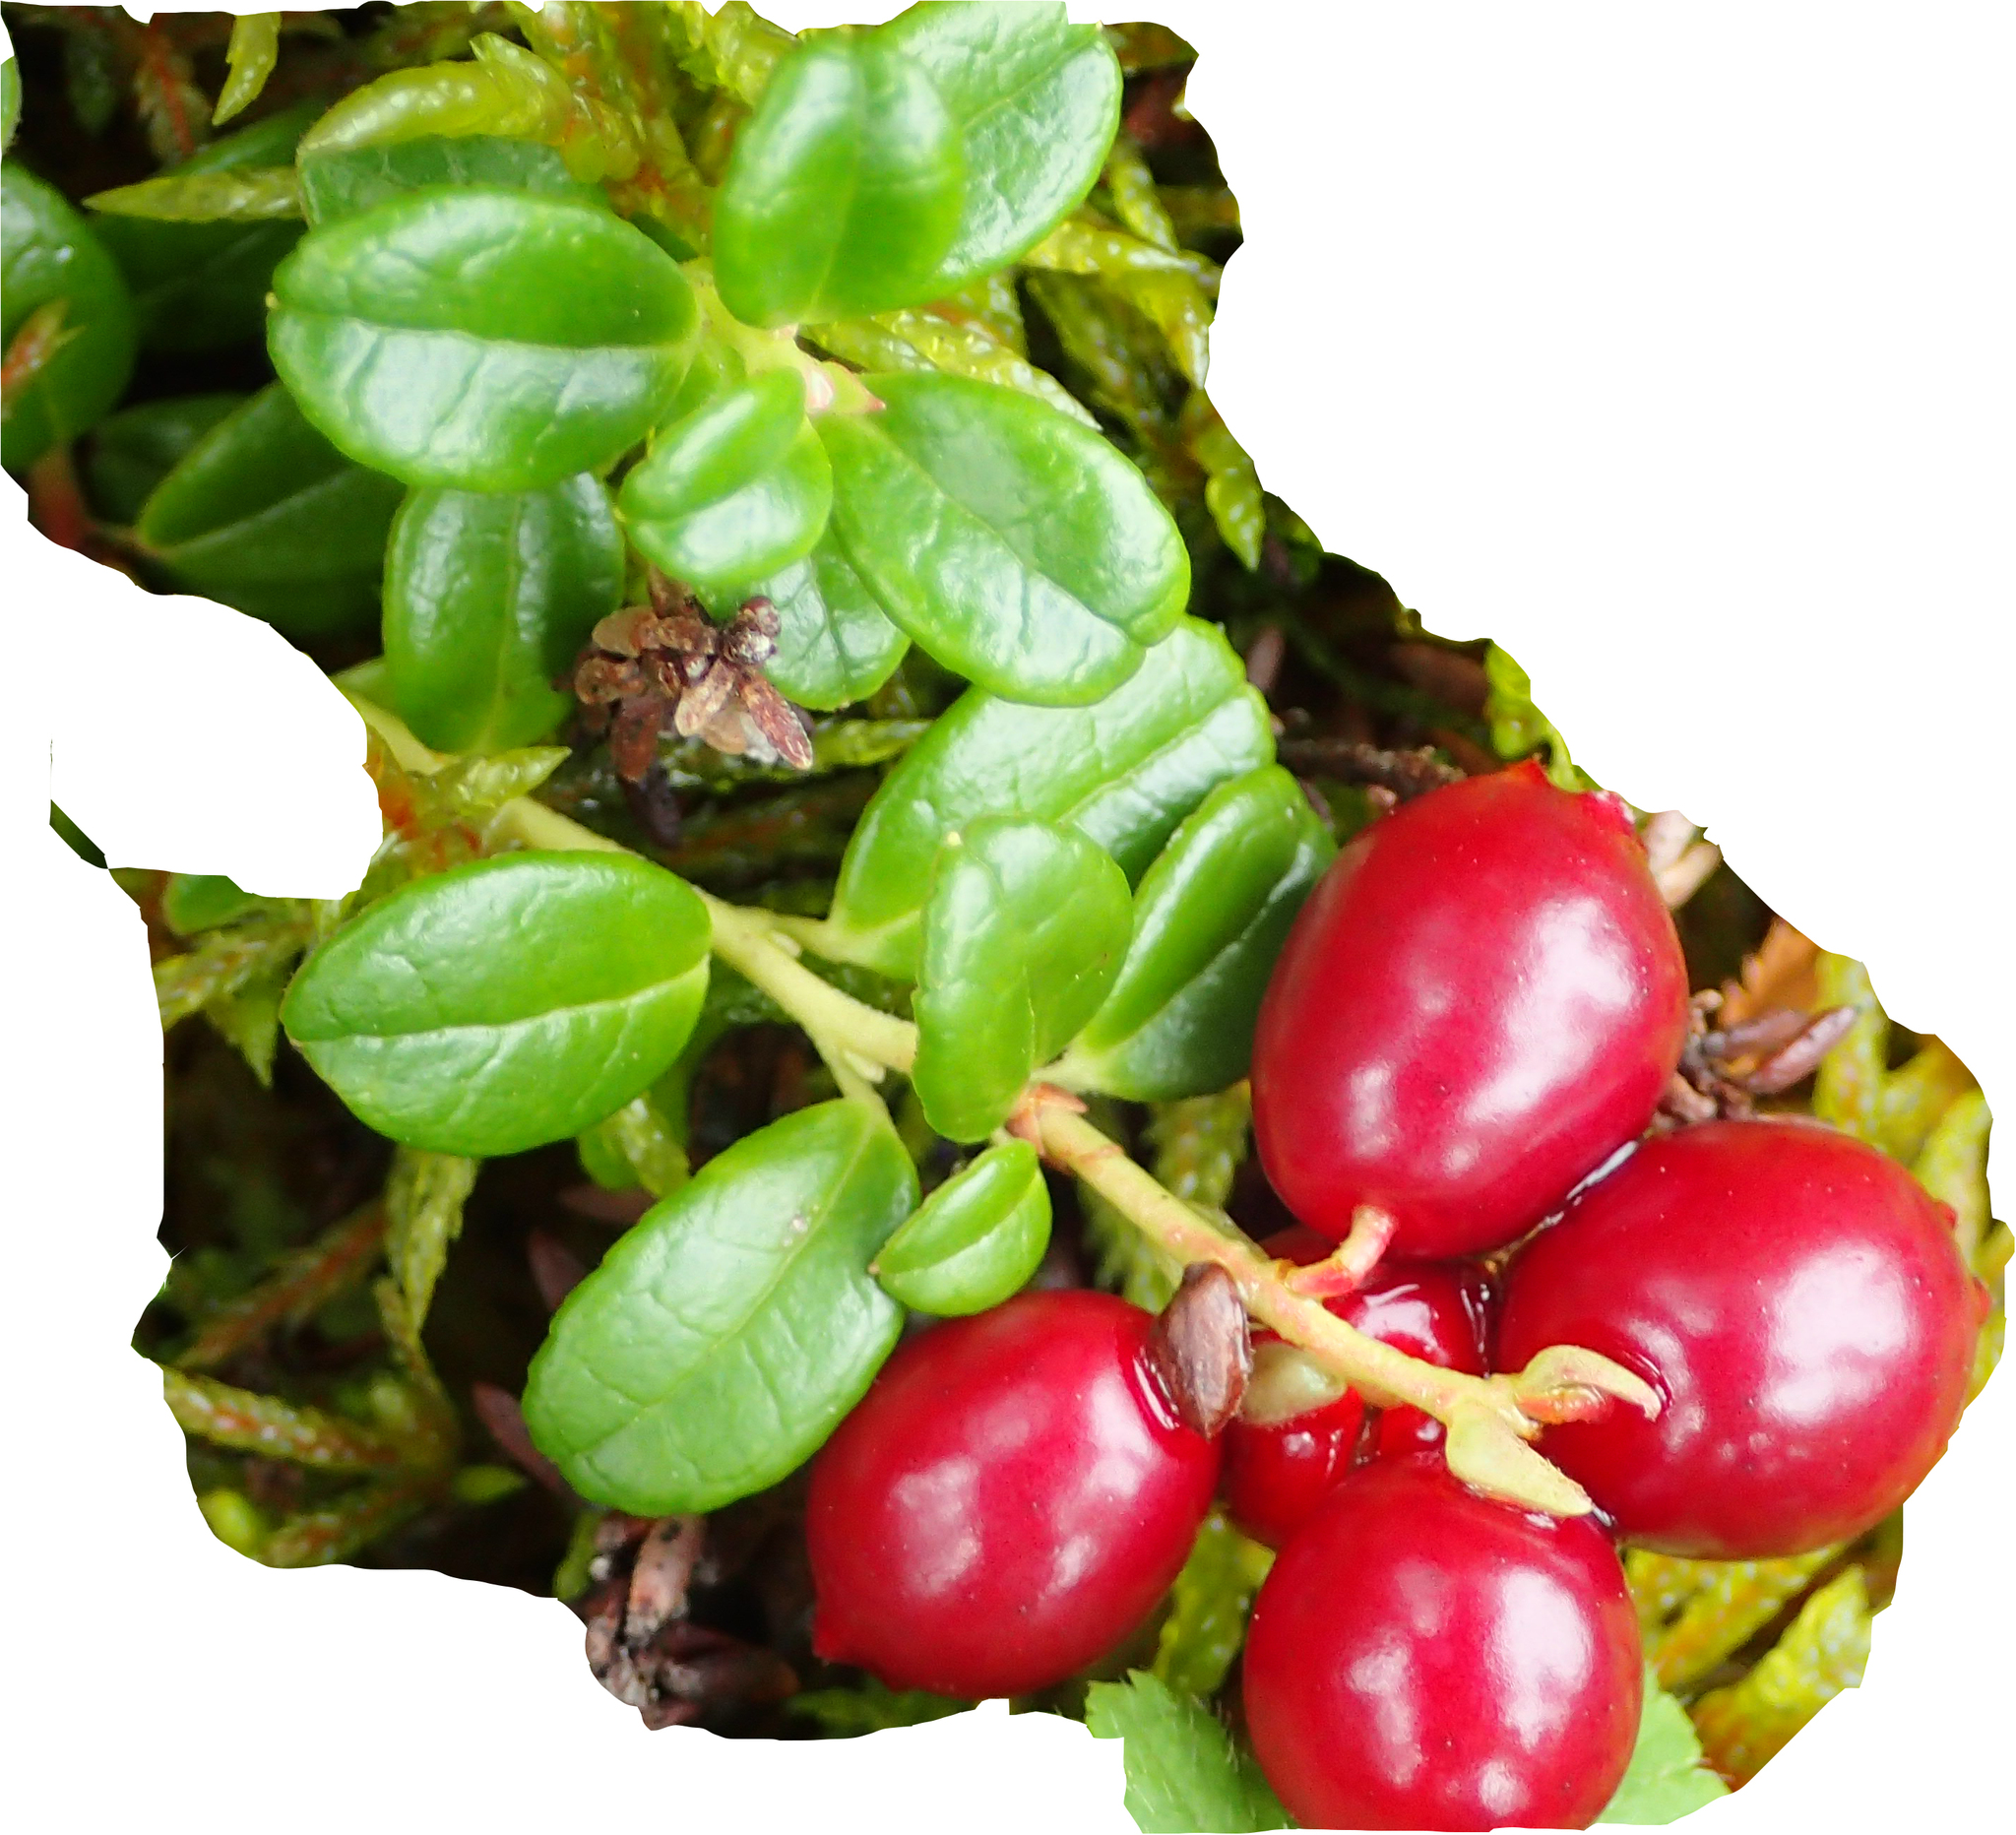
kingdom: Plantae
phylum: Tracheophyta
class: Magnoliopsida
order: Ericales
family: Ericaceae
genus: Vaccinium
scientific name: Vaccinium vitis-idaea
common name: Cowberry
